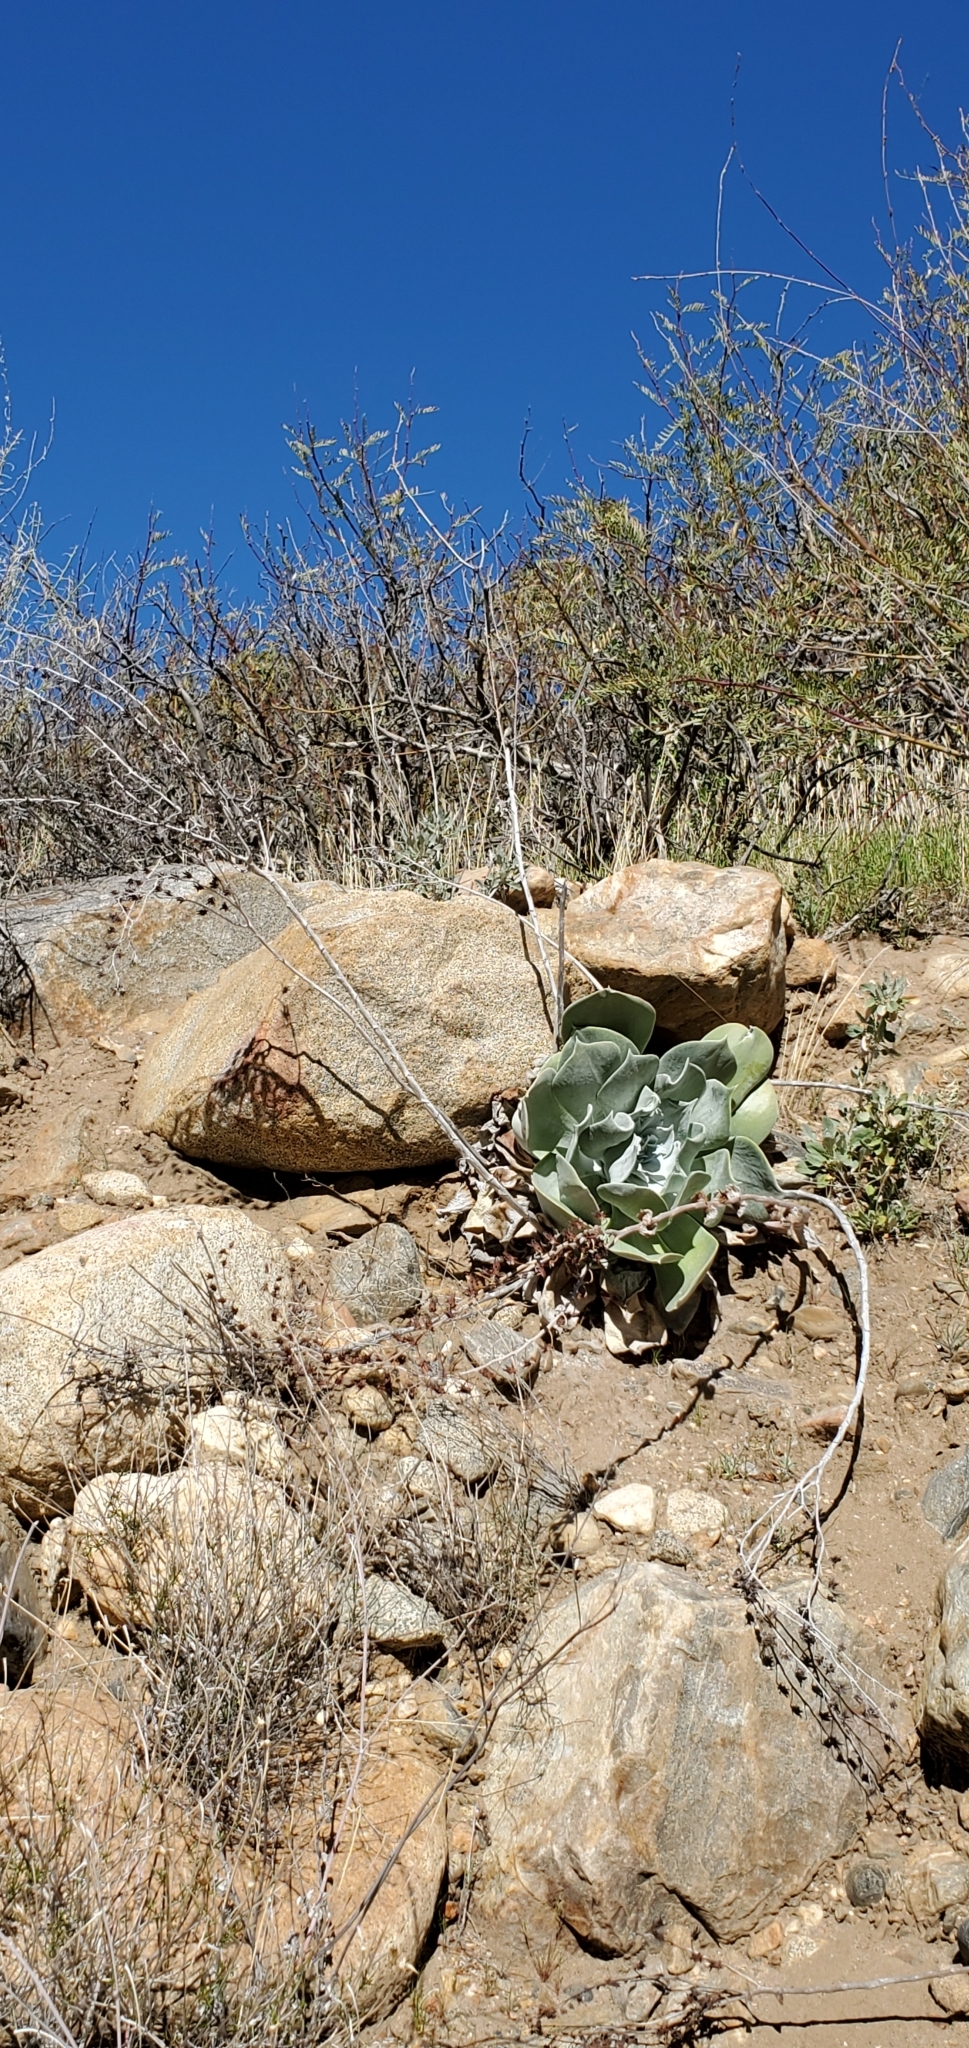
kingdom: Plantae
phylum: Tracheophyta
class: Magnoliopsida
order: Saxifragales
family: Crassulaceae
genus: Dudleya
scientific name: Dudleya pulverulenta
